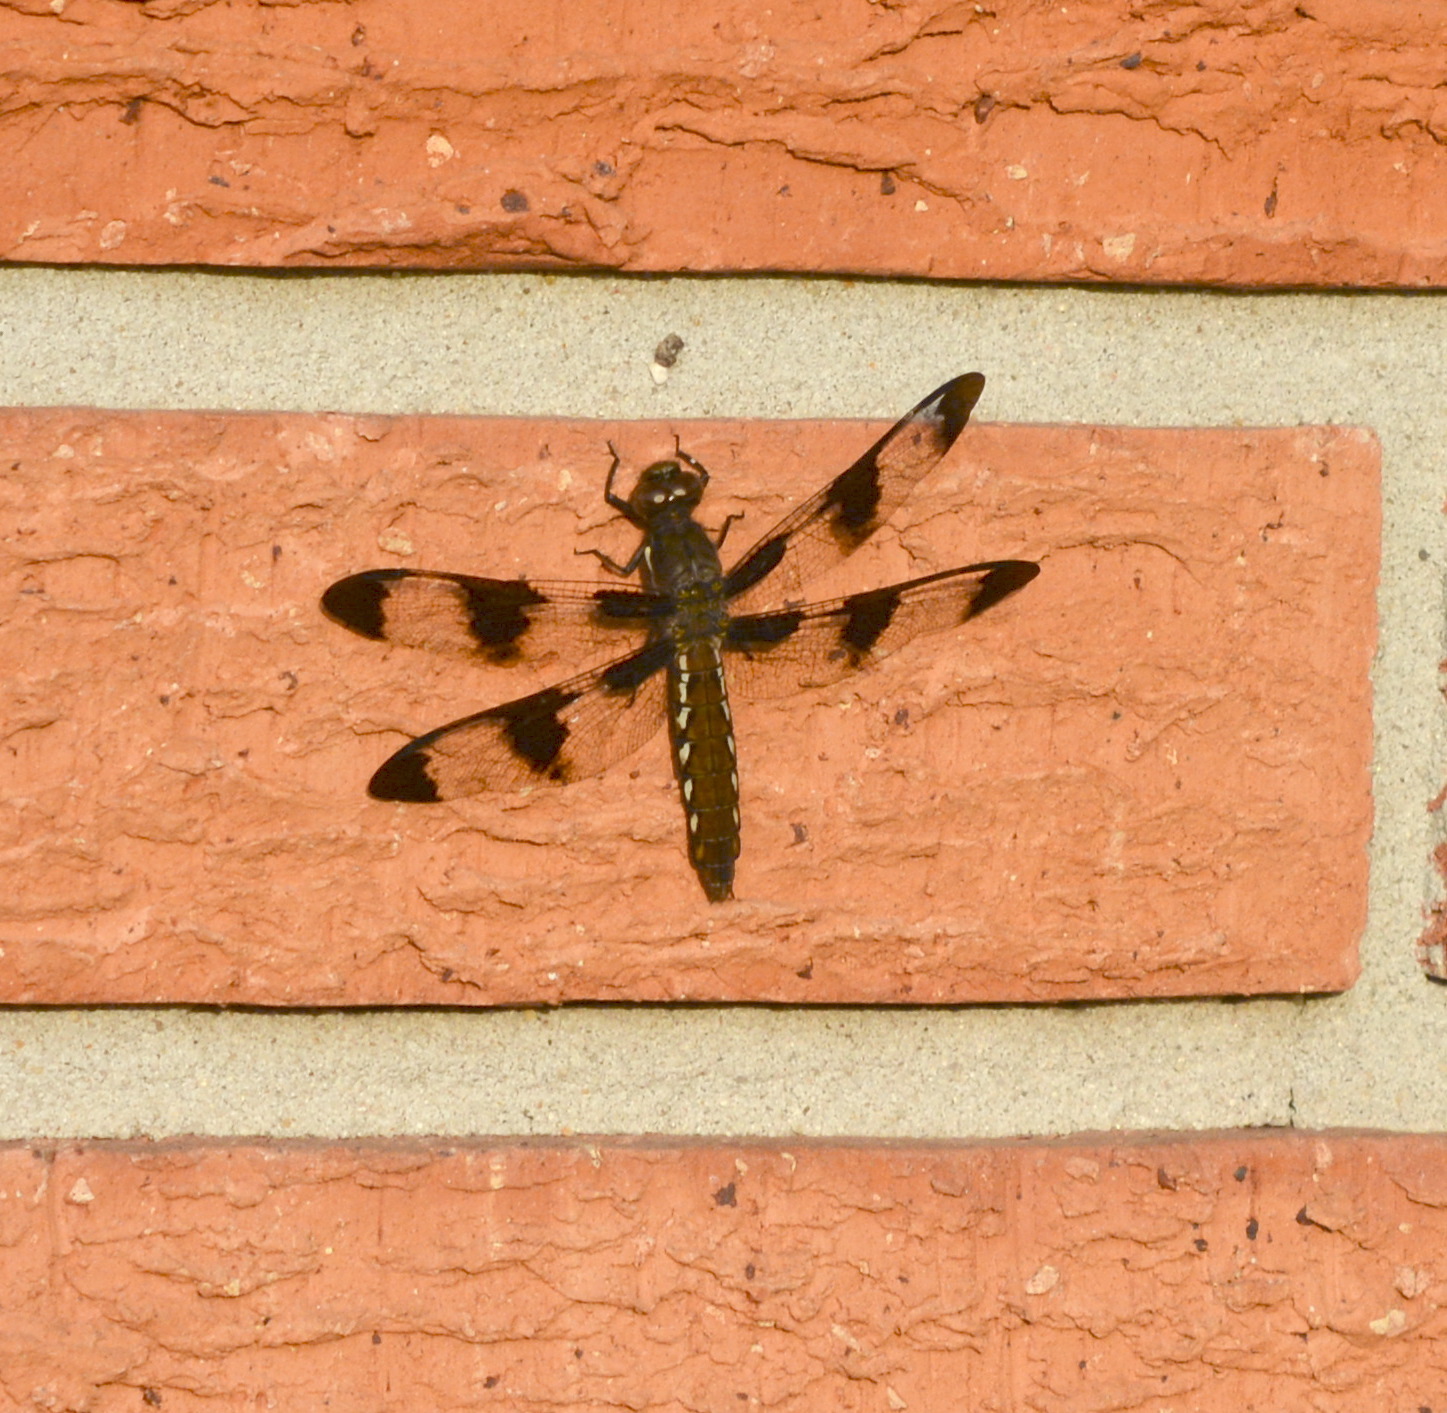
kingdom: Animalia
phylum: Arthropoda
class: Insecta
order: Odonata
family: Libellulidae
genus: Plathemis
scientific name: Plathemis lydia
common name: Common whitetail
